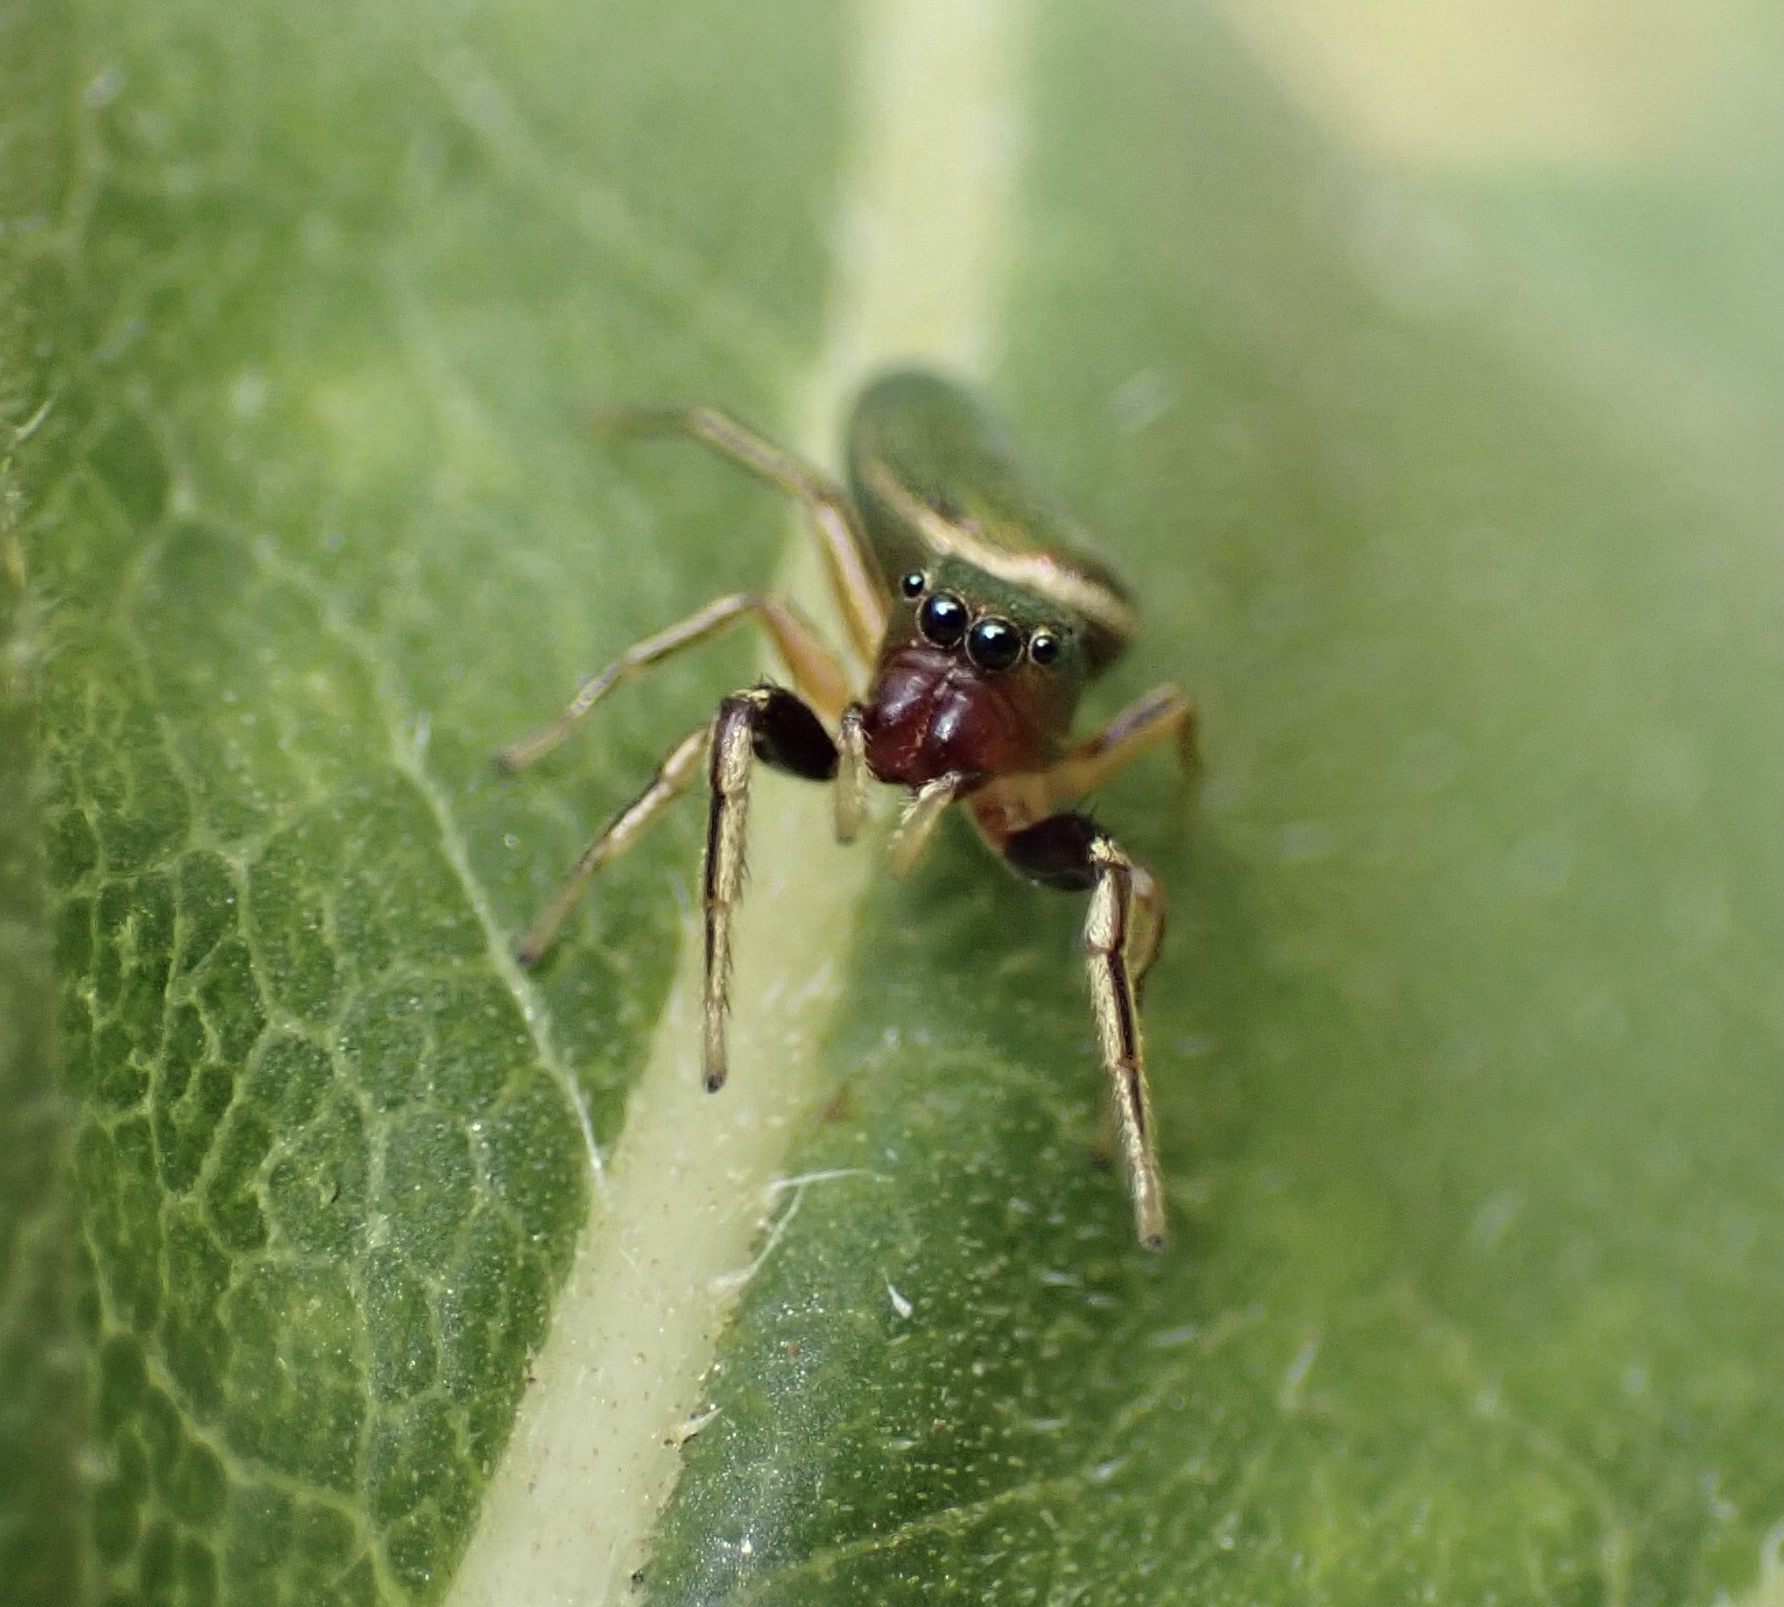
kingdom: Animalia
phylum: Arthropoda
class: Arachnida
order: Araneae
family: Salticidae
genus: Tutelina
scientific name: Tutelina elegans
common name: Thin-spined jumping spider
